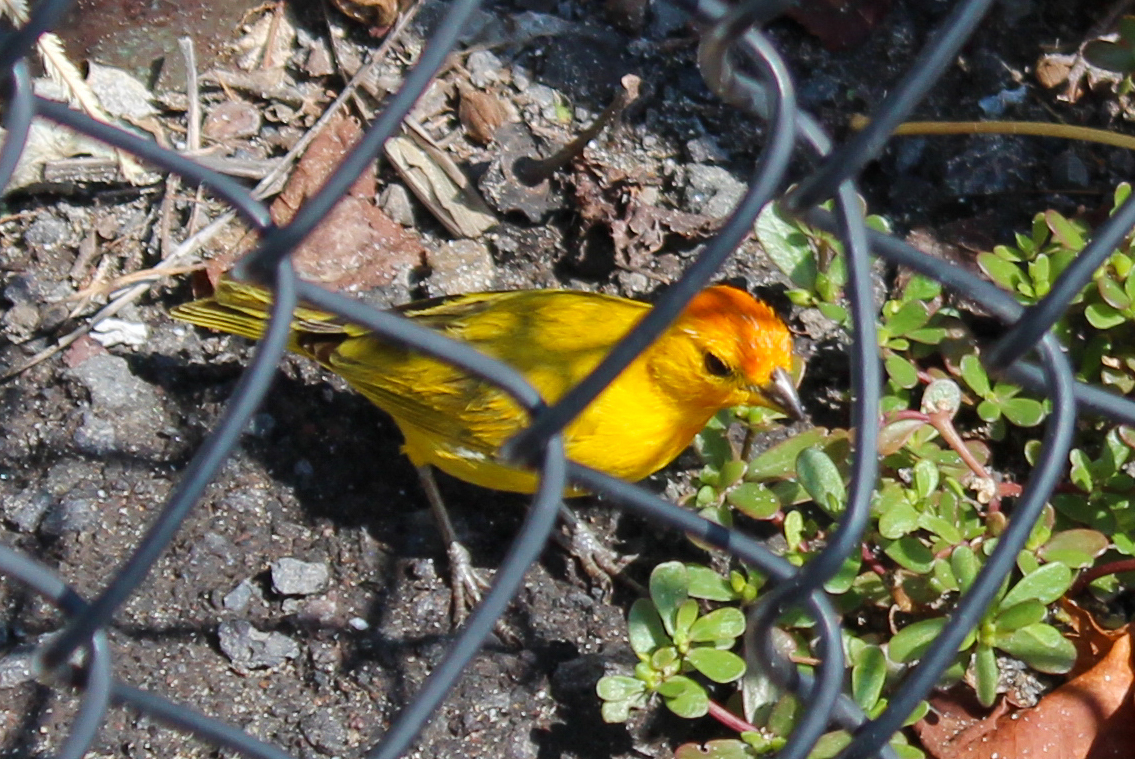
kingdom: Animalia
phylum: Chordata
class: Aves
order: Passeriformes
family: Thraupidae
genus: Sicalis
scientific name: Sicalis flaveola
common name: Saffron finch
